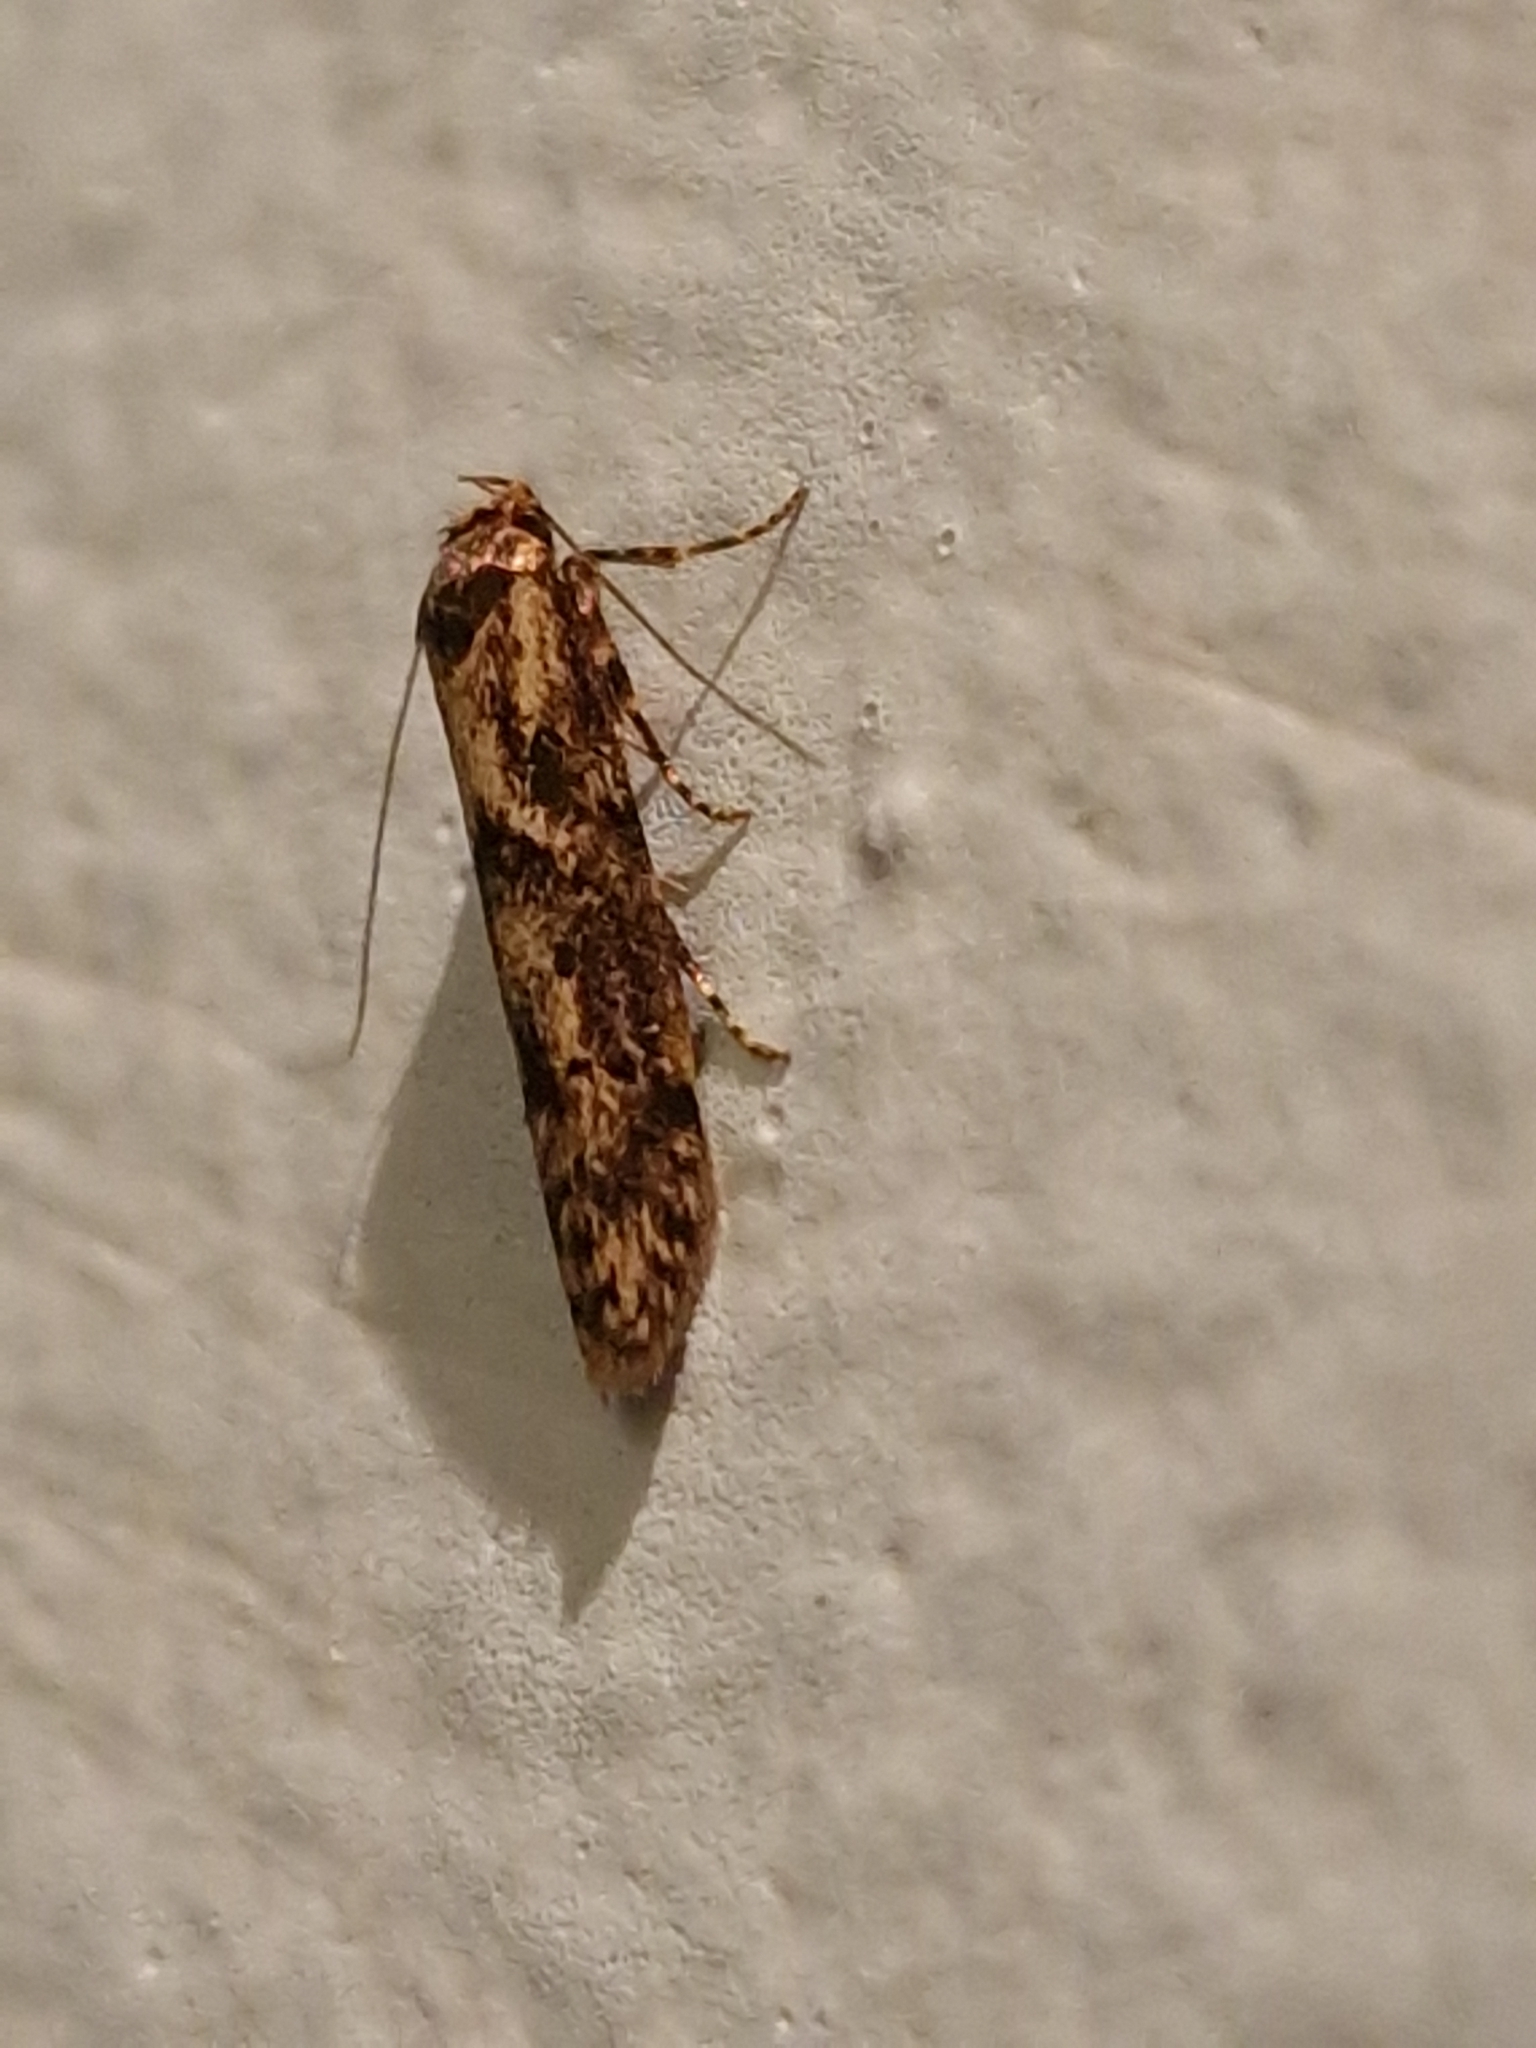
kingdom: Animalia
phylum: Arthropoda
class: Insecta
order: Lepidoptera
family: Blastobasidae
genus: Blastobasis
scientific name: Blastobasis adustella
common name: Dingy dowd
